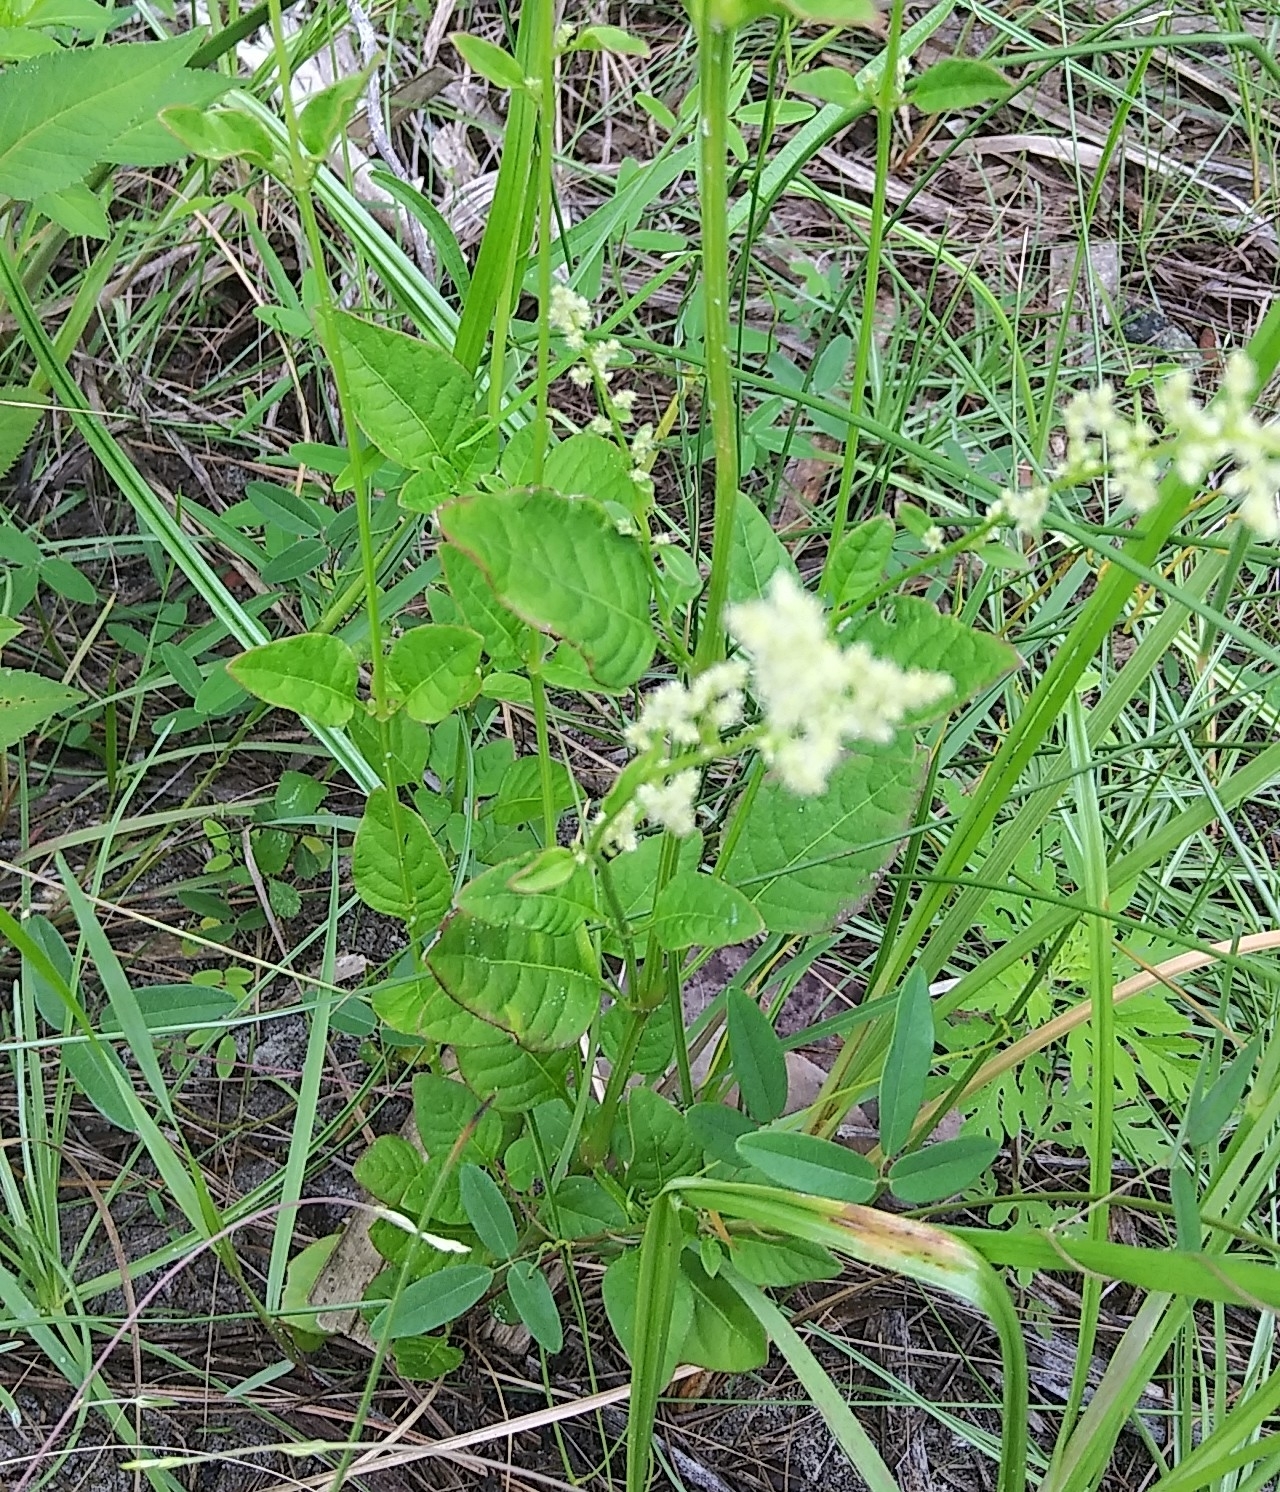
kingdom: Plantae
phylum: Tracheophyta
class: Magnoliopsida
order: Caryophyllales
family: Amaranthaceae
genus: Iresine
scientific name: Iresine diffusa
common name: Juba's-bush
